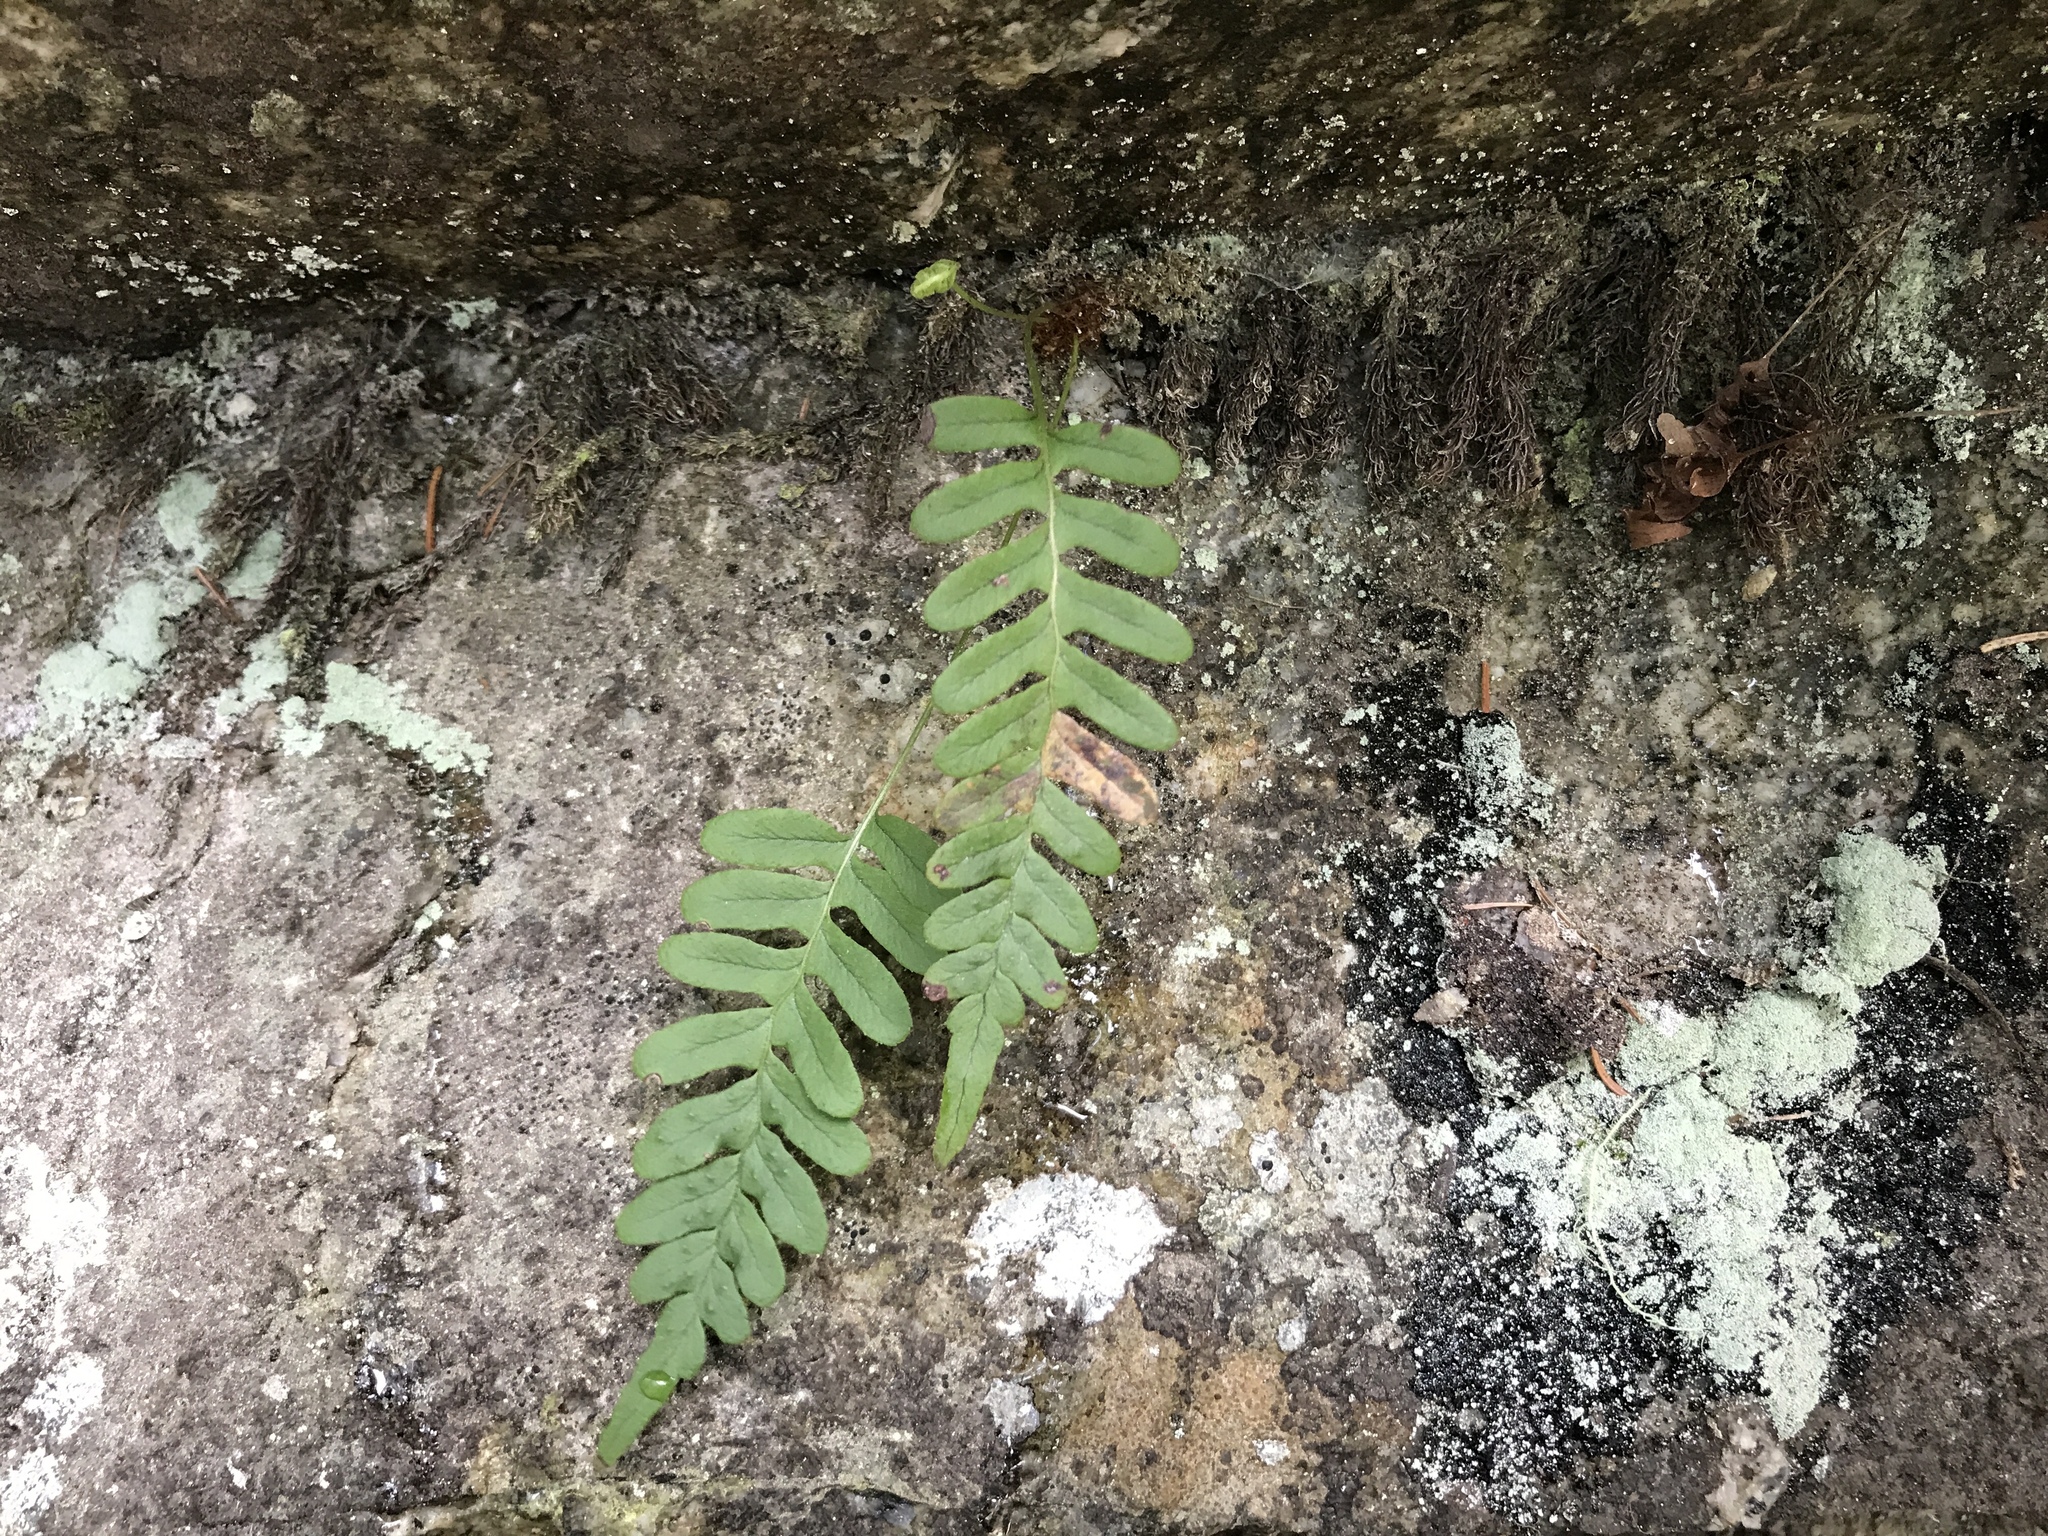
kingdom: Plantae
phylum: Tracheophyta
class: Polypodiopsida
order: Polypodiales
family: Polypodiaceae
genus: Polypodium
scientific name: Polypodium vulgare
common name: Common polypody
